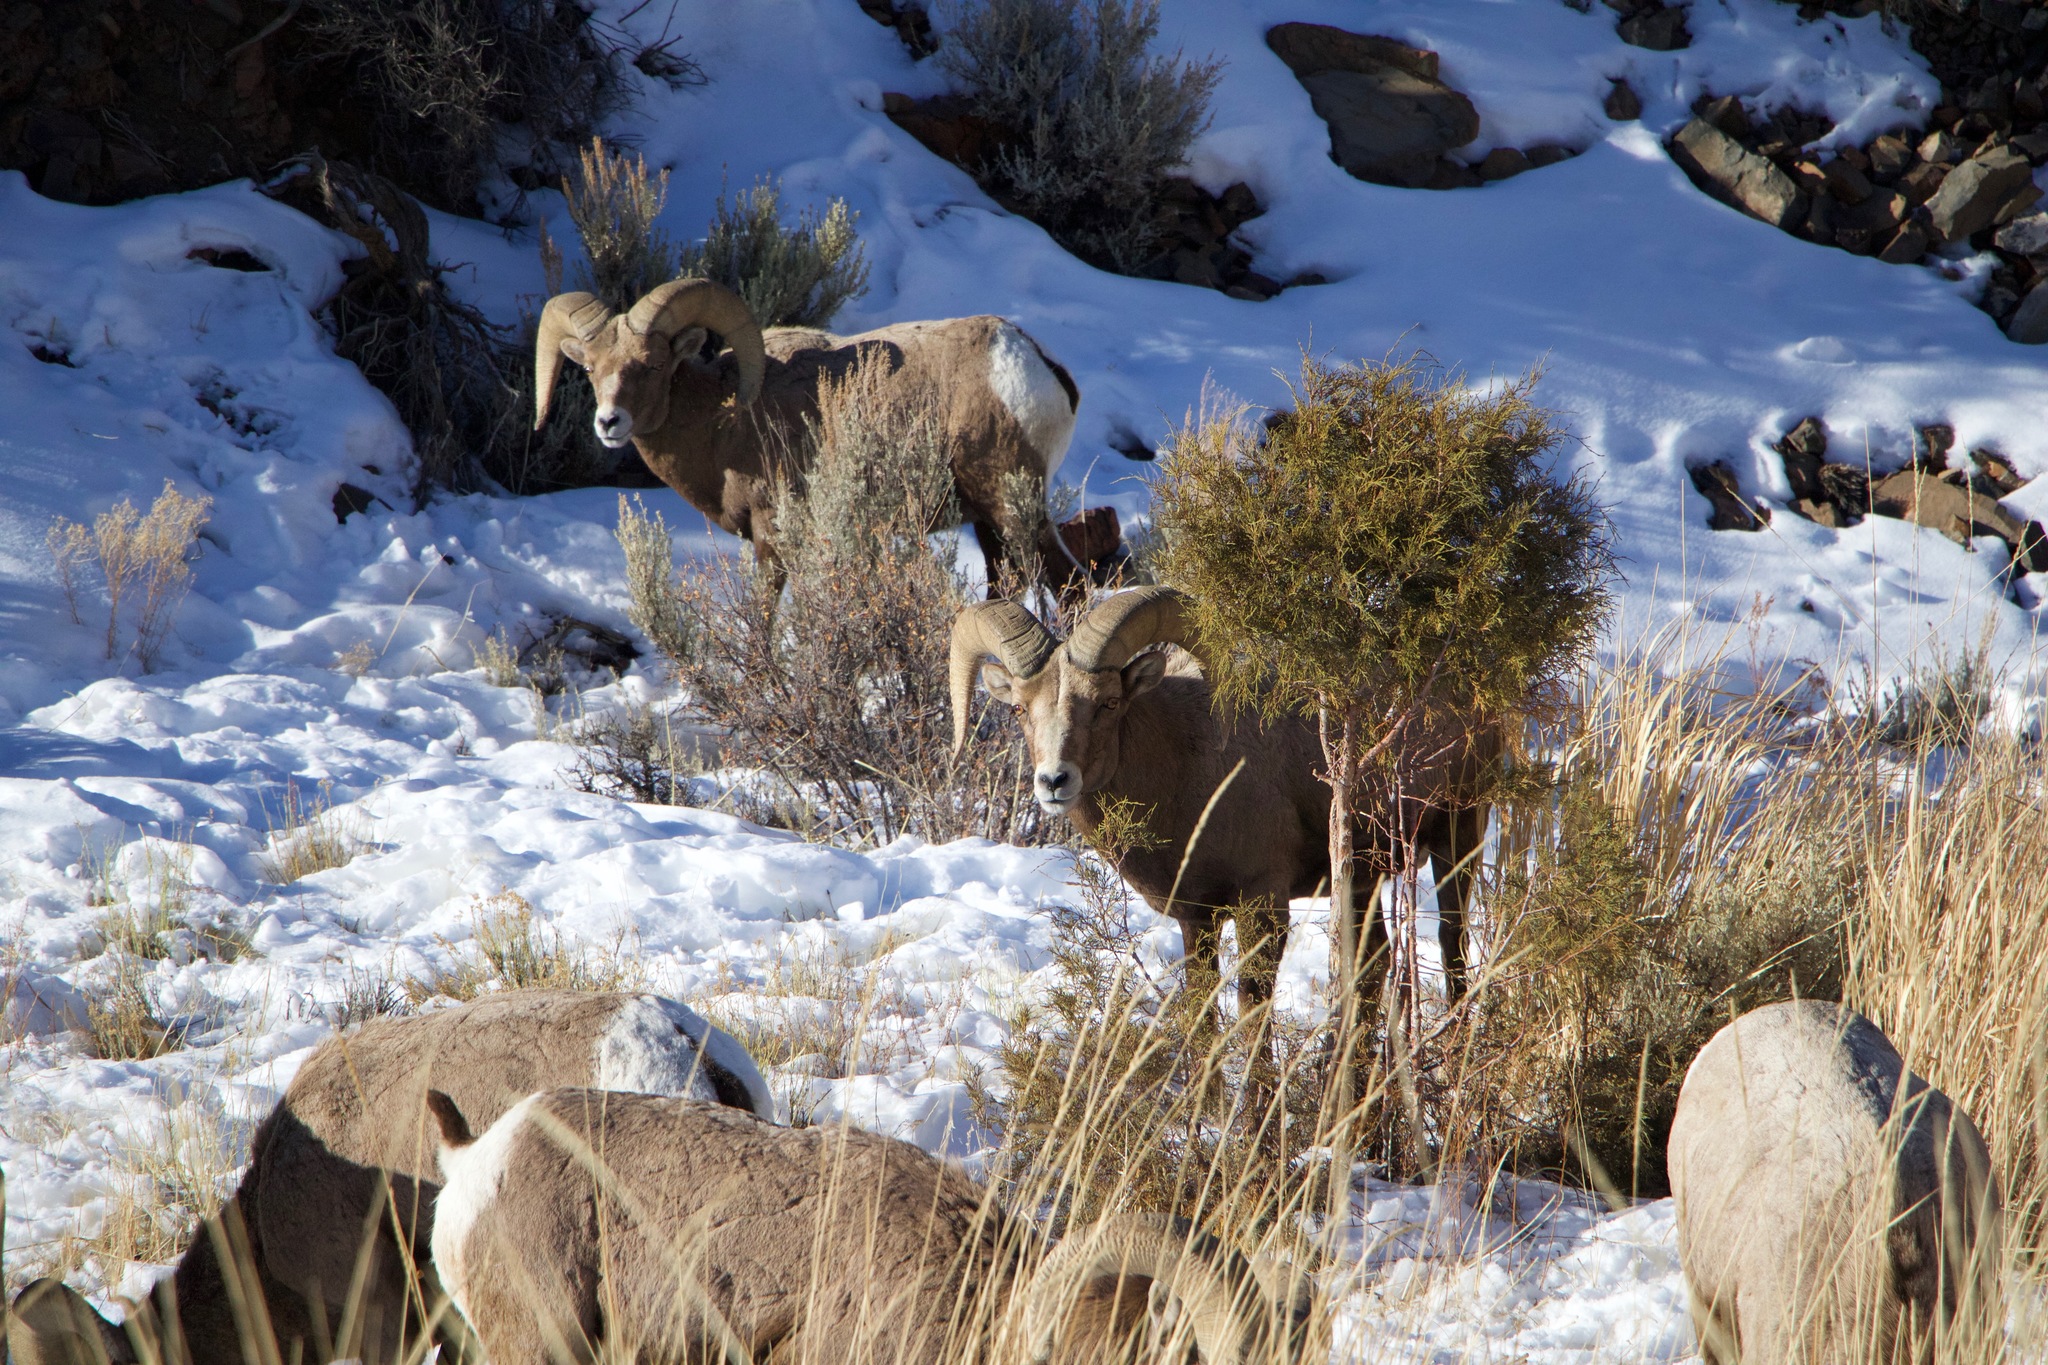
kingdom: Animalia
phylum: Chordata
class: Mammalia
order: Artiodactyla
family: Bovidae
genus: Ovis
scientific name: Ovis canadensis
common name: Bighorn sheep
